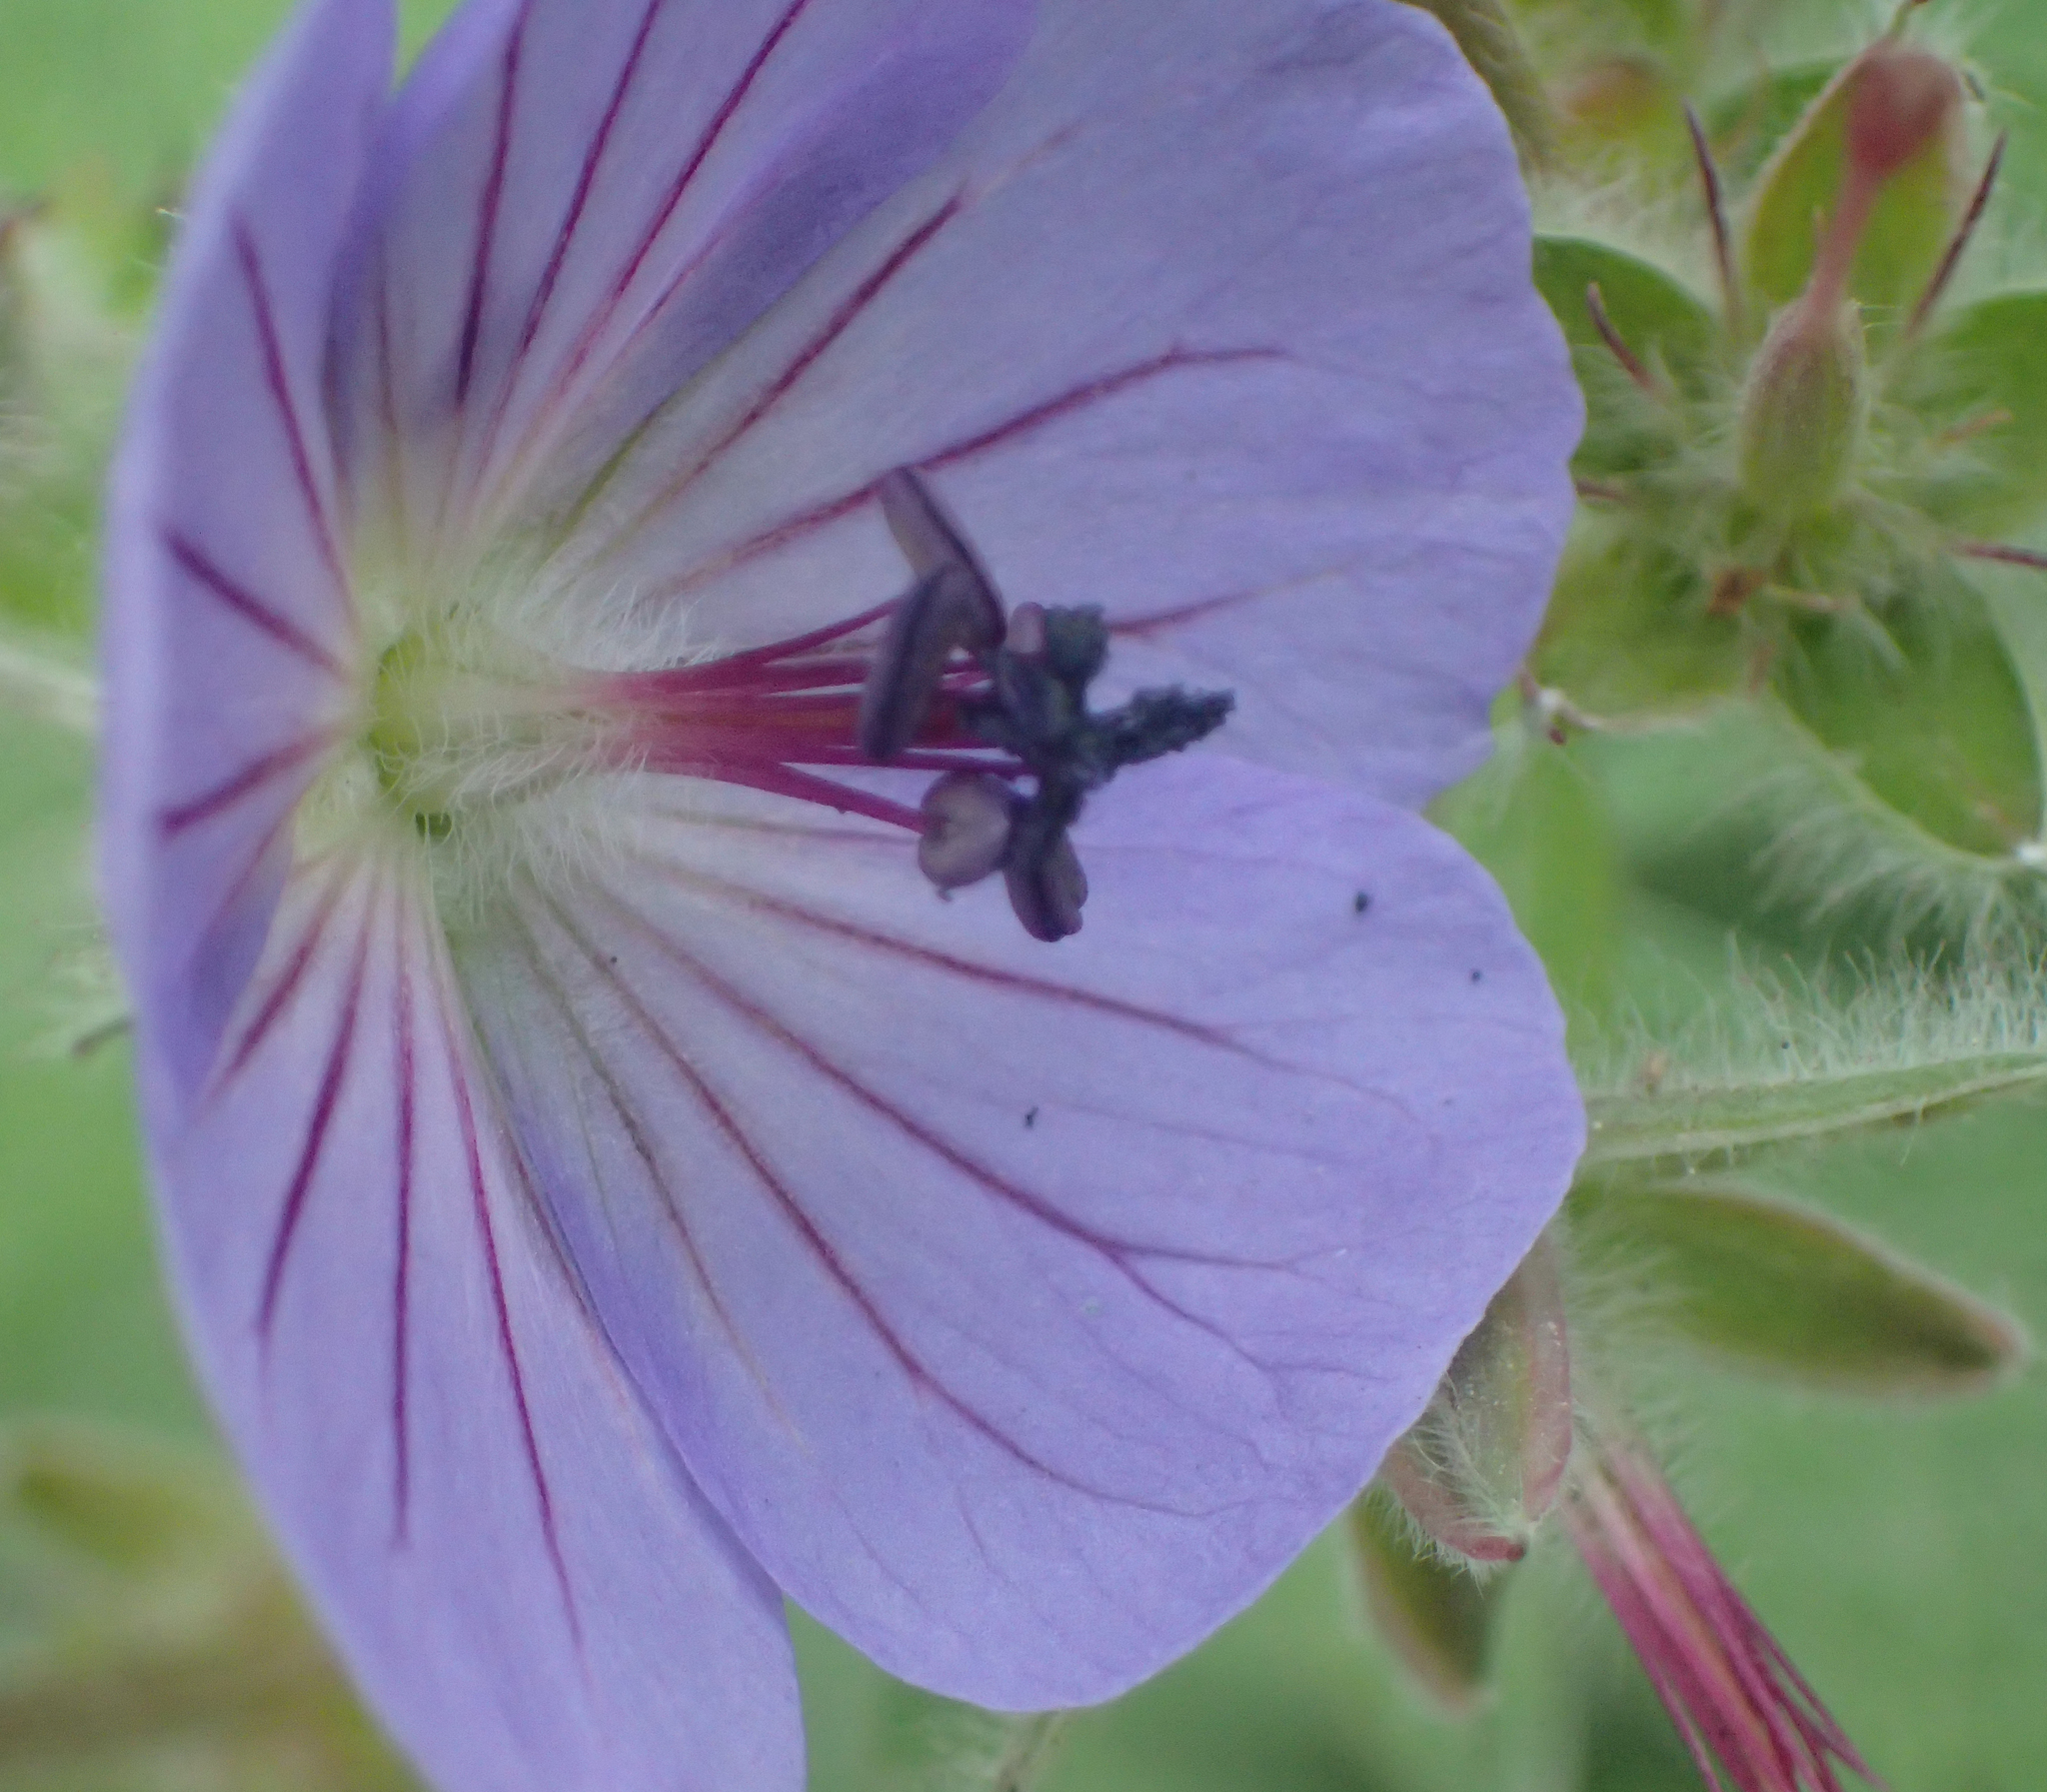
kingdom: Plantae
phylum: Tracheophyta
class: Magnoliopsida
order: Geraniales
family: Geraniaceae
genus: Geranium
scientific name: Geranium erianthum
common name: Northern crane's-bill
